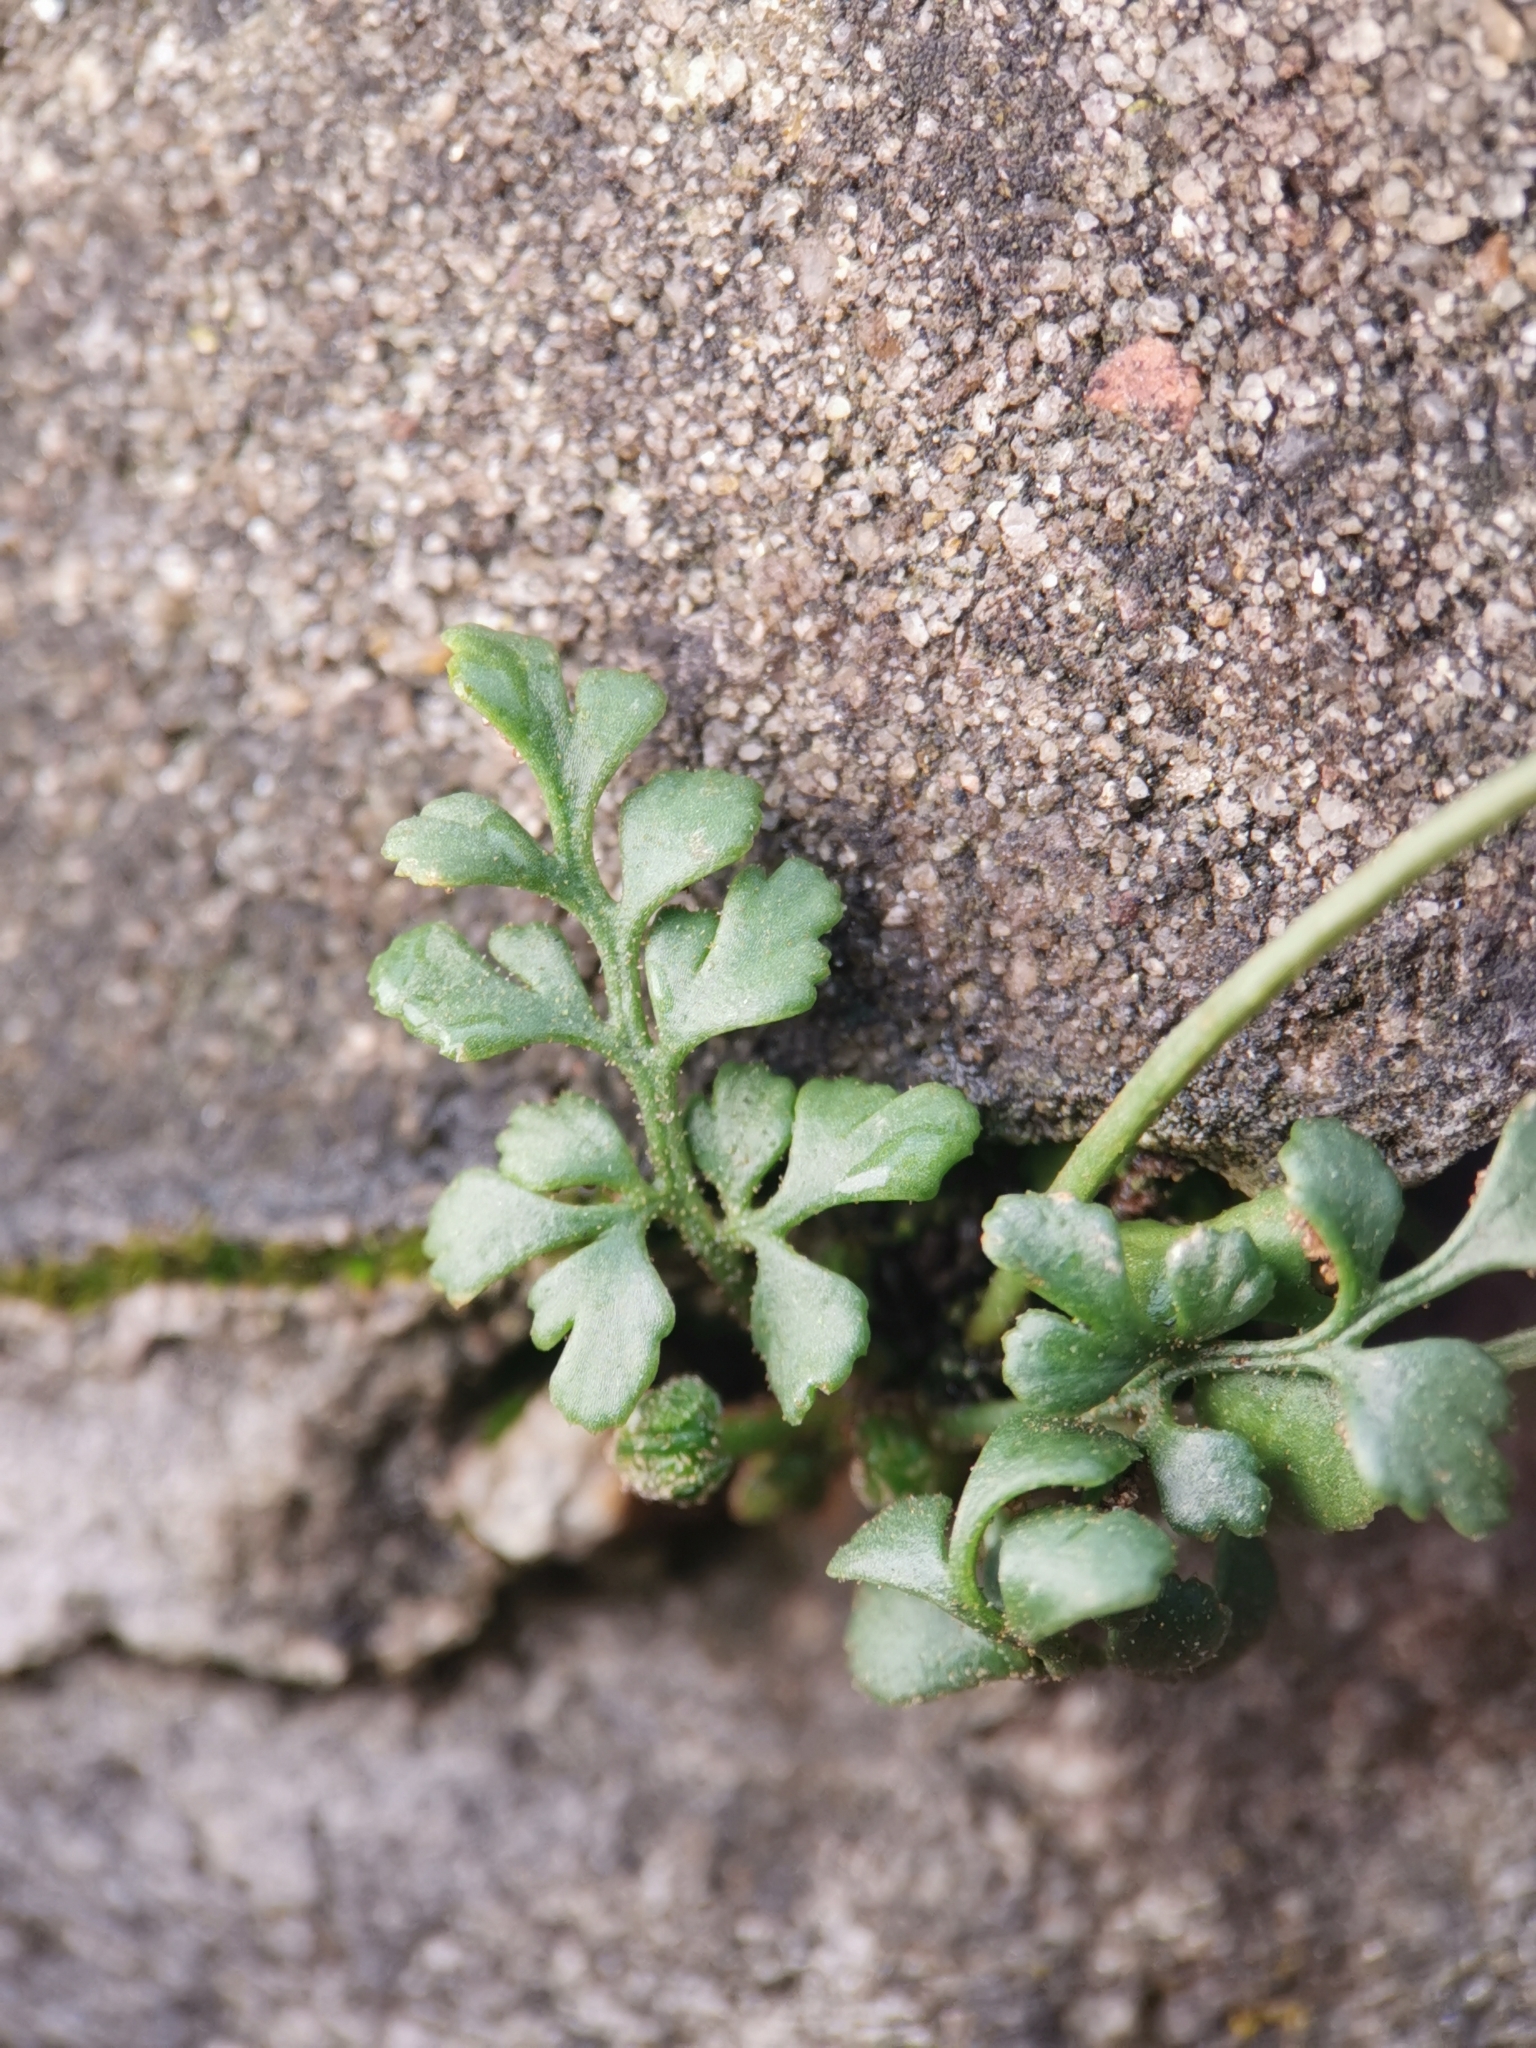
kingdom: Plantae
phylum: Tracheophyta
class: Polypodiopsida
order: Polypodiales
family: Aspleniaceae
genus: Asplenium
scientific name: Asplenium ruta-muraria
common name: Wall-rue
